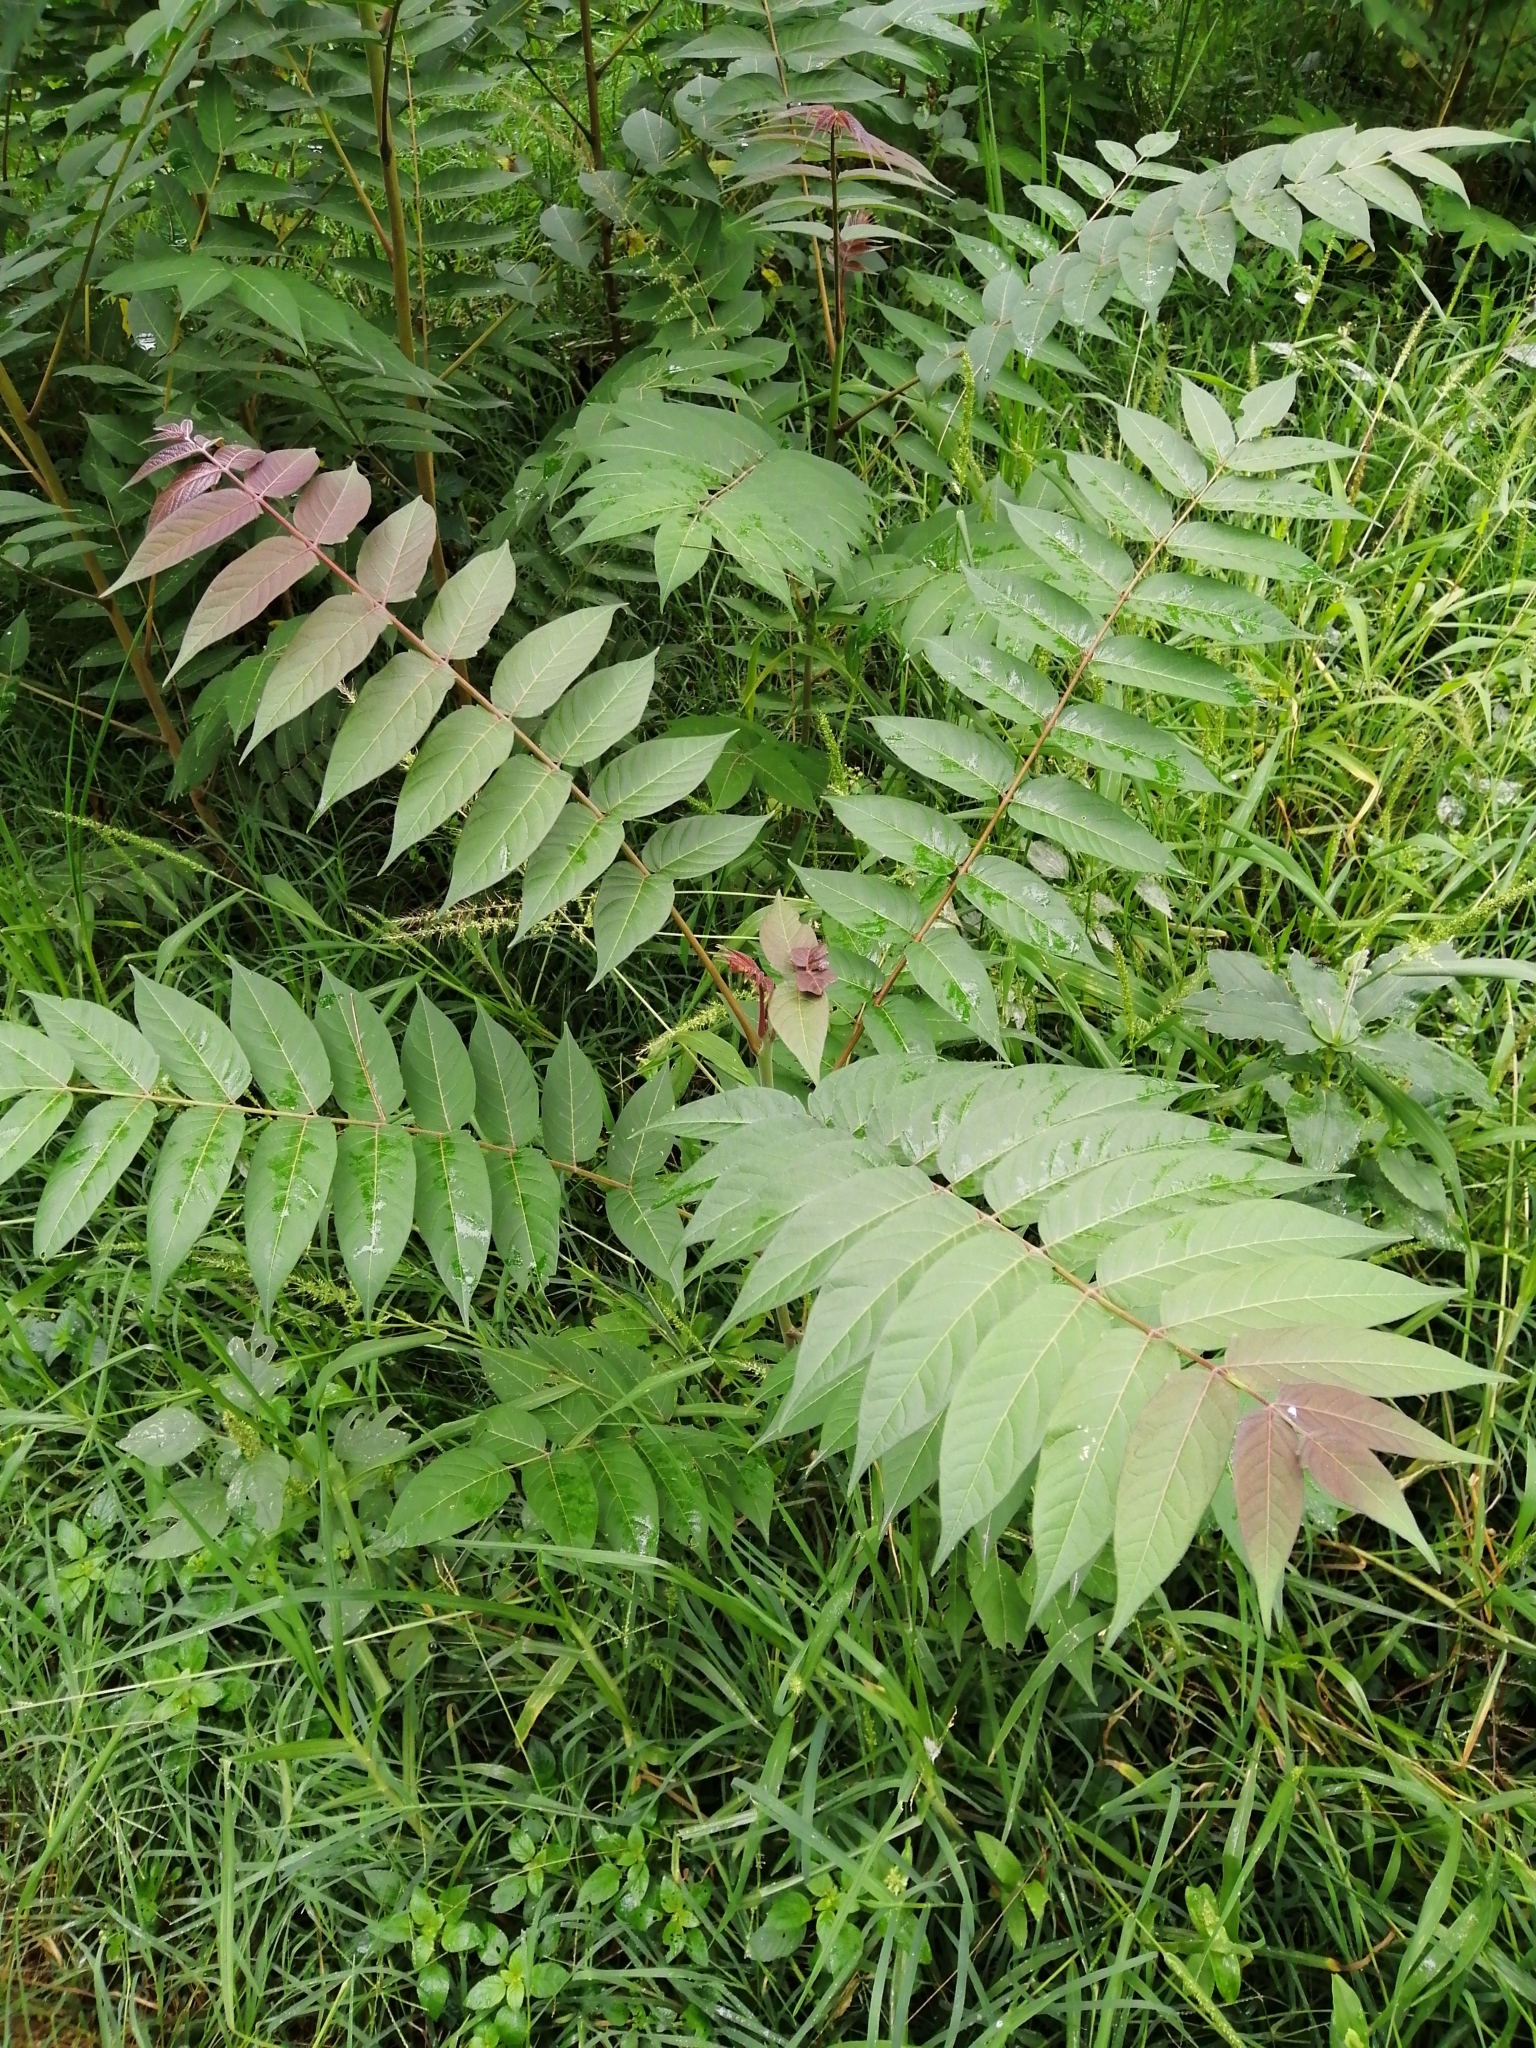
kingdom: Plantae
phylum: Tracheophyta
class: Magnoliopsida
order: Sapindales
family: Simaroubaceae
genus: Ailanthus
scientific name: Ailanthus altissima
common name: Tree-of-heaven
